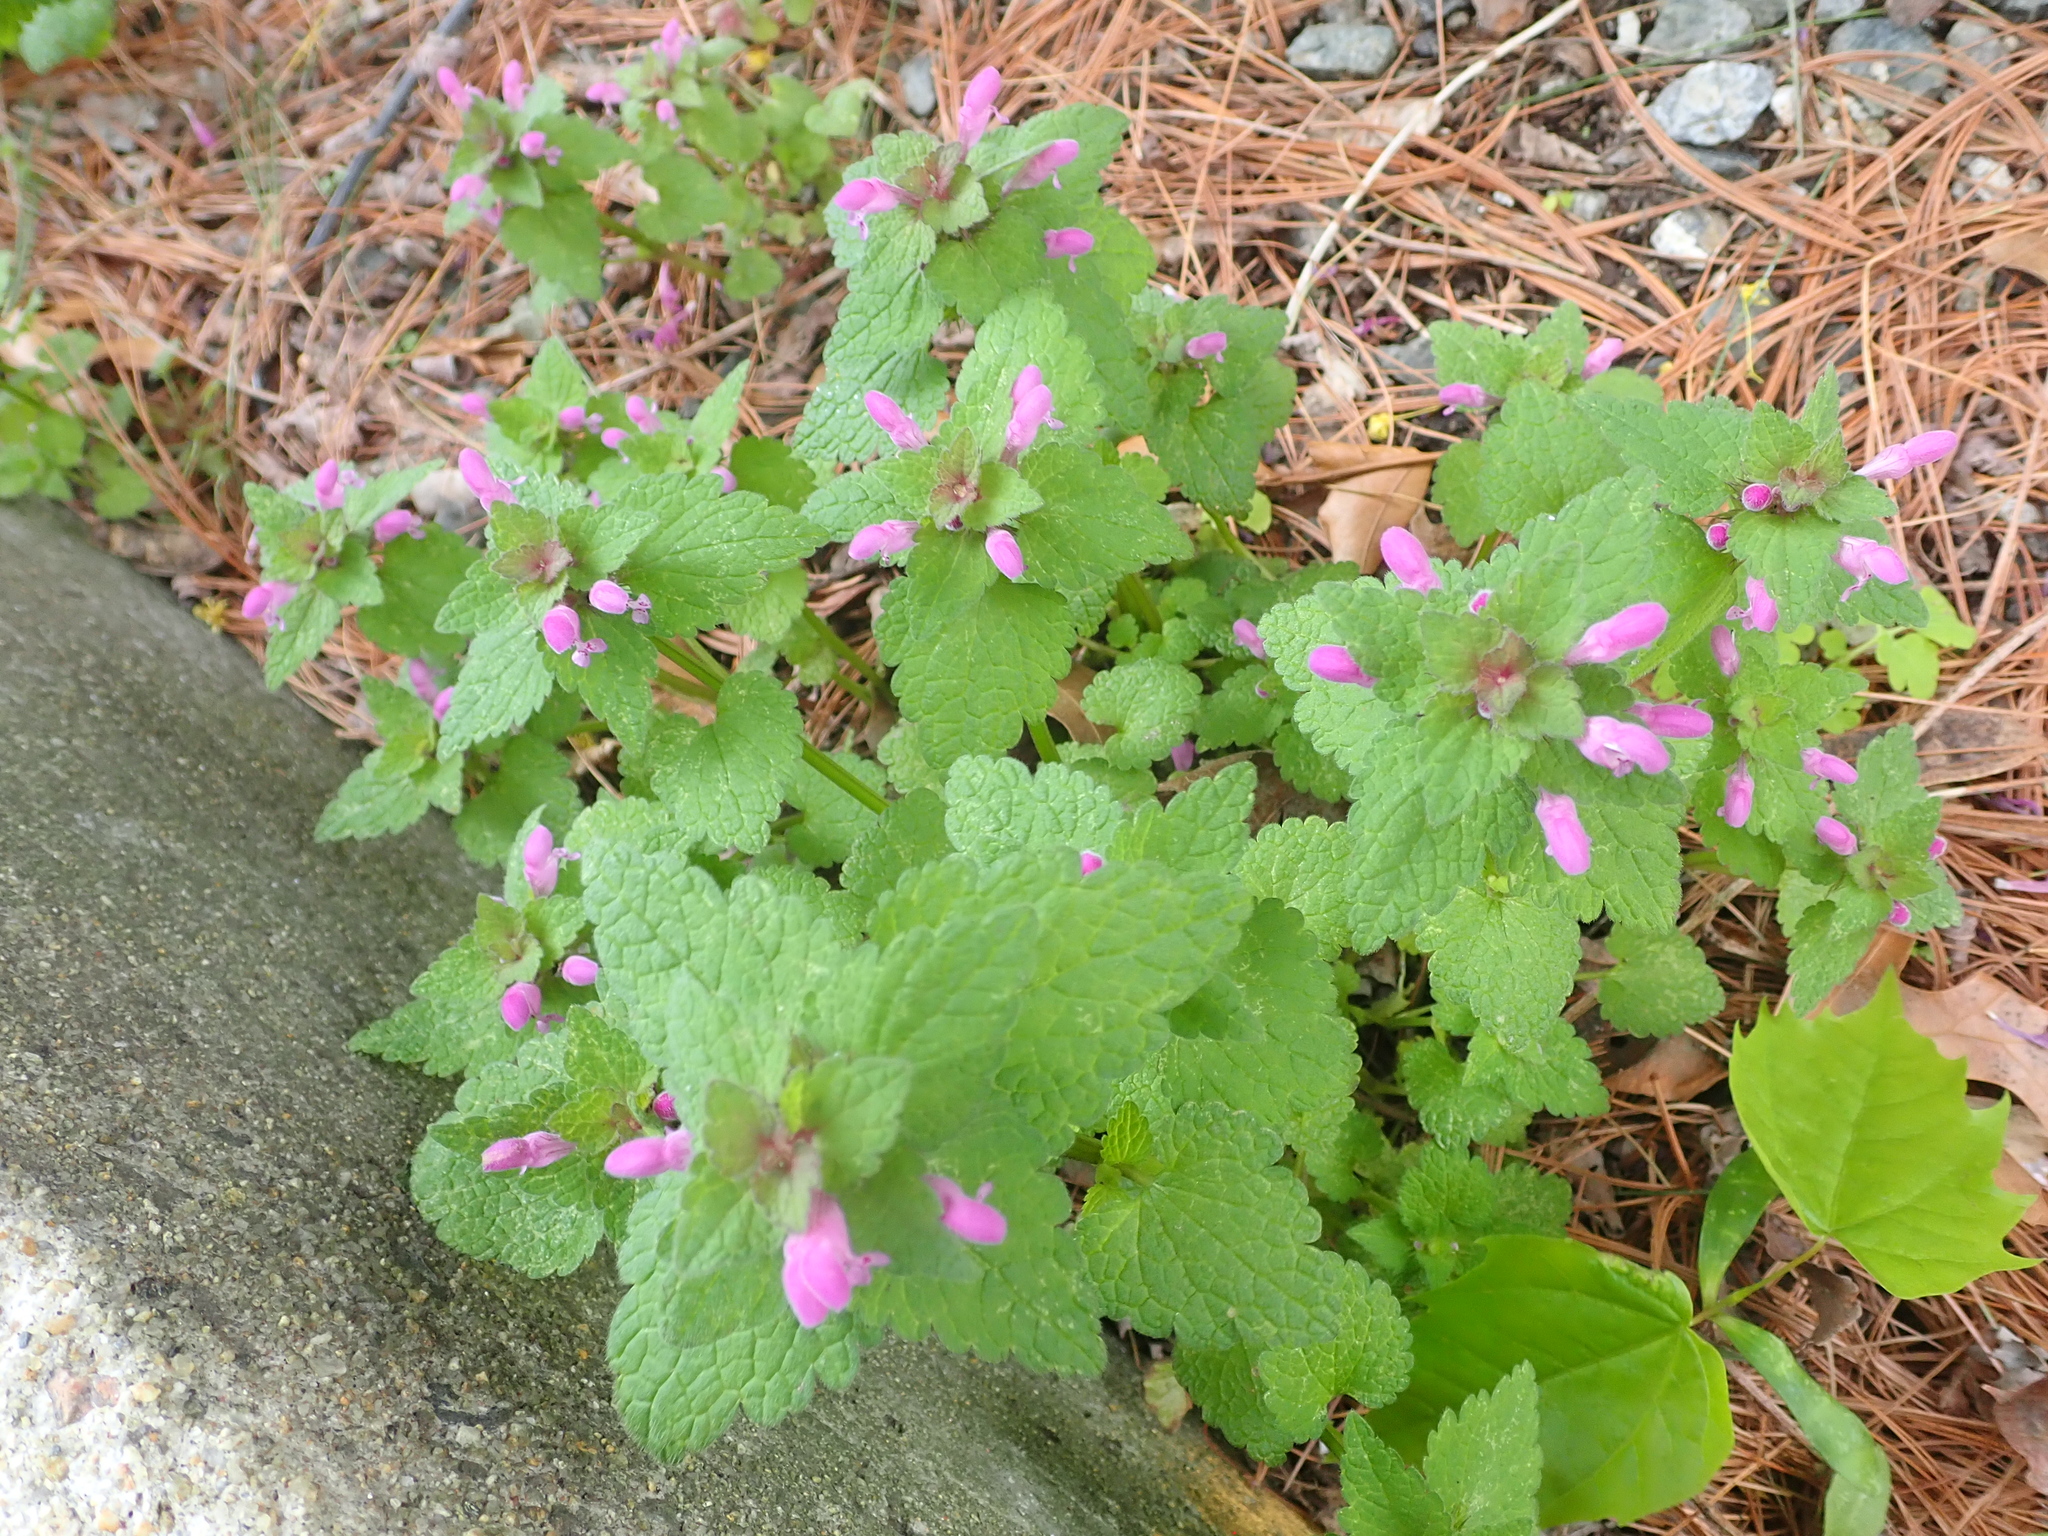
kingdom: Plantae
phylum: Tracheophyta
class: Magnoliopsida
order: Lamiales
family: Lamiaceae
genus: Lamium
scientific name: Lamium purpureum
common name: Red dead-nettle
